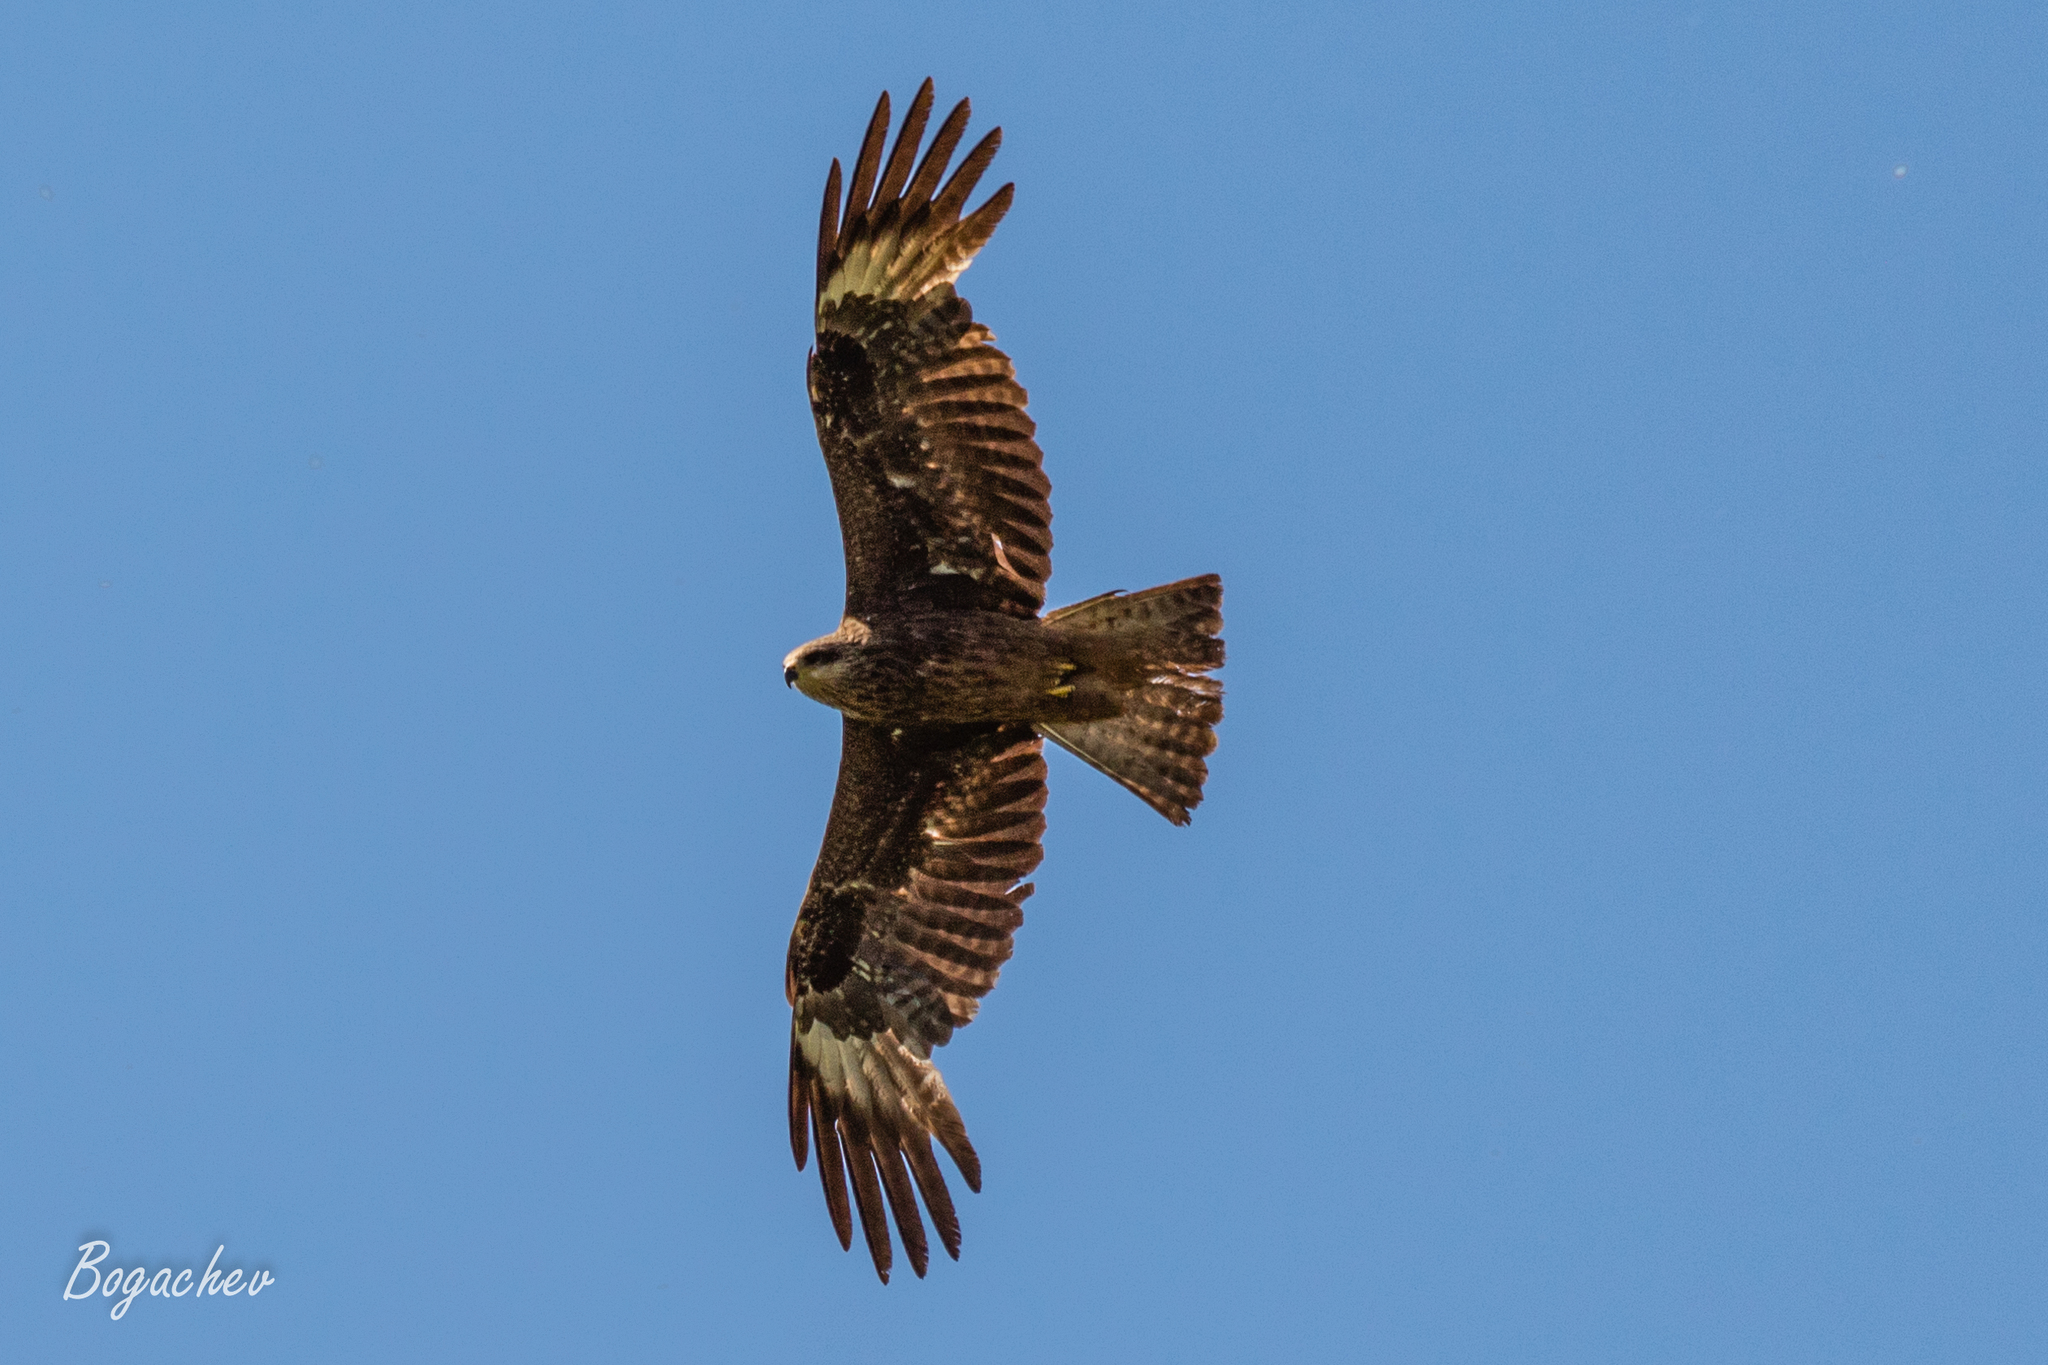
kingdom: Animalia
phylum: Chordata
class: Aves
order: Accipitriformes
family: Accipitridae
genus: Milvus
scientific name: Milvus migrans
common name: Black kite
